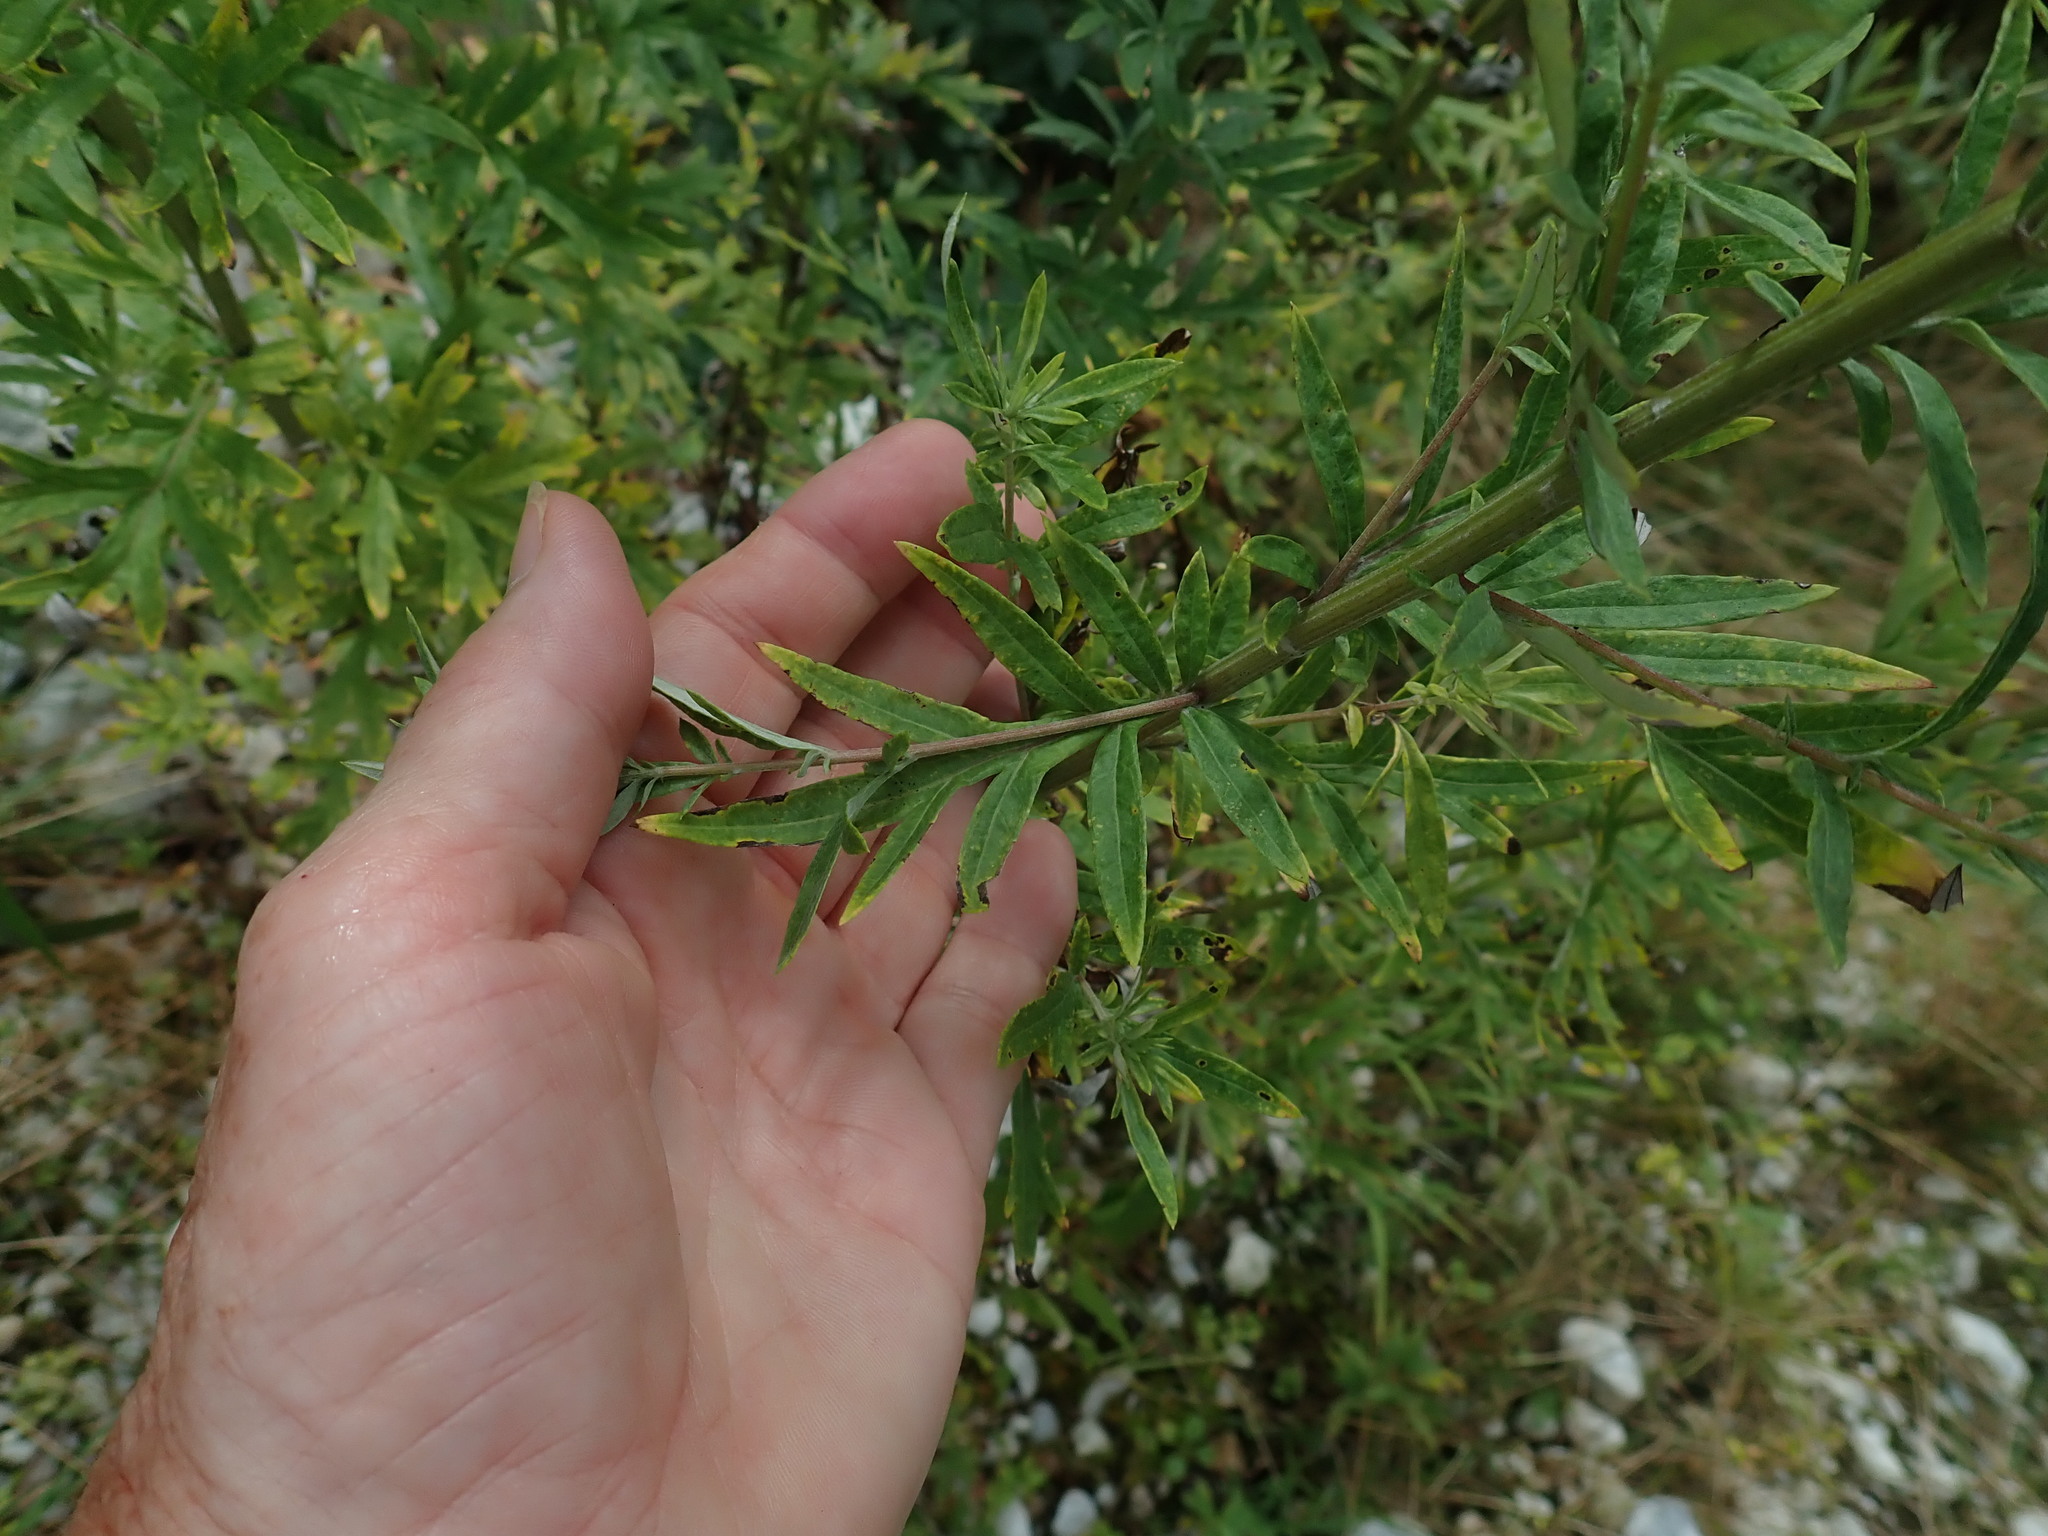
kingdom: Plantae
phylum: Tracheophyta
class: Magnoliopsida
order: Asterales
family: Asteraceae
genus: Artemisia
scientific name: Artemisia vulgaris
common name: Mugwort
